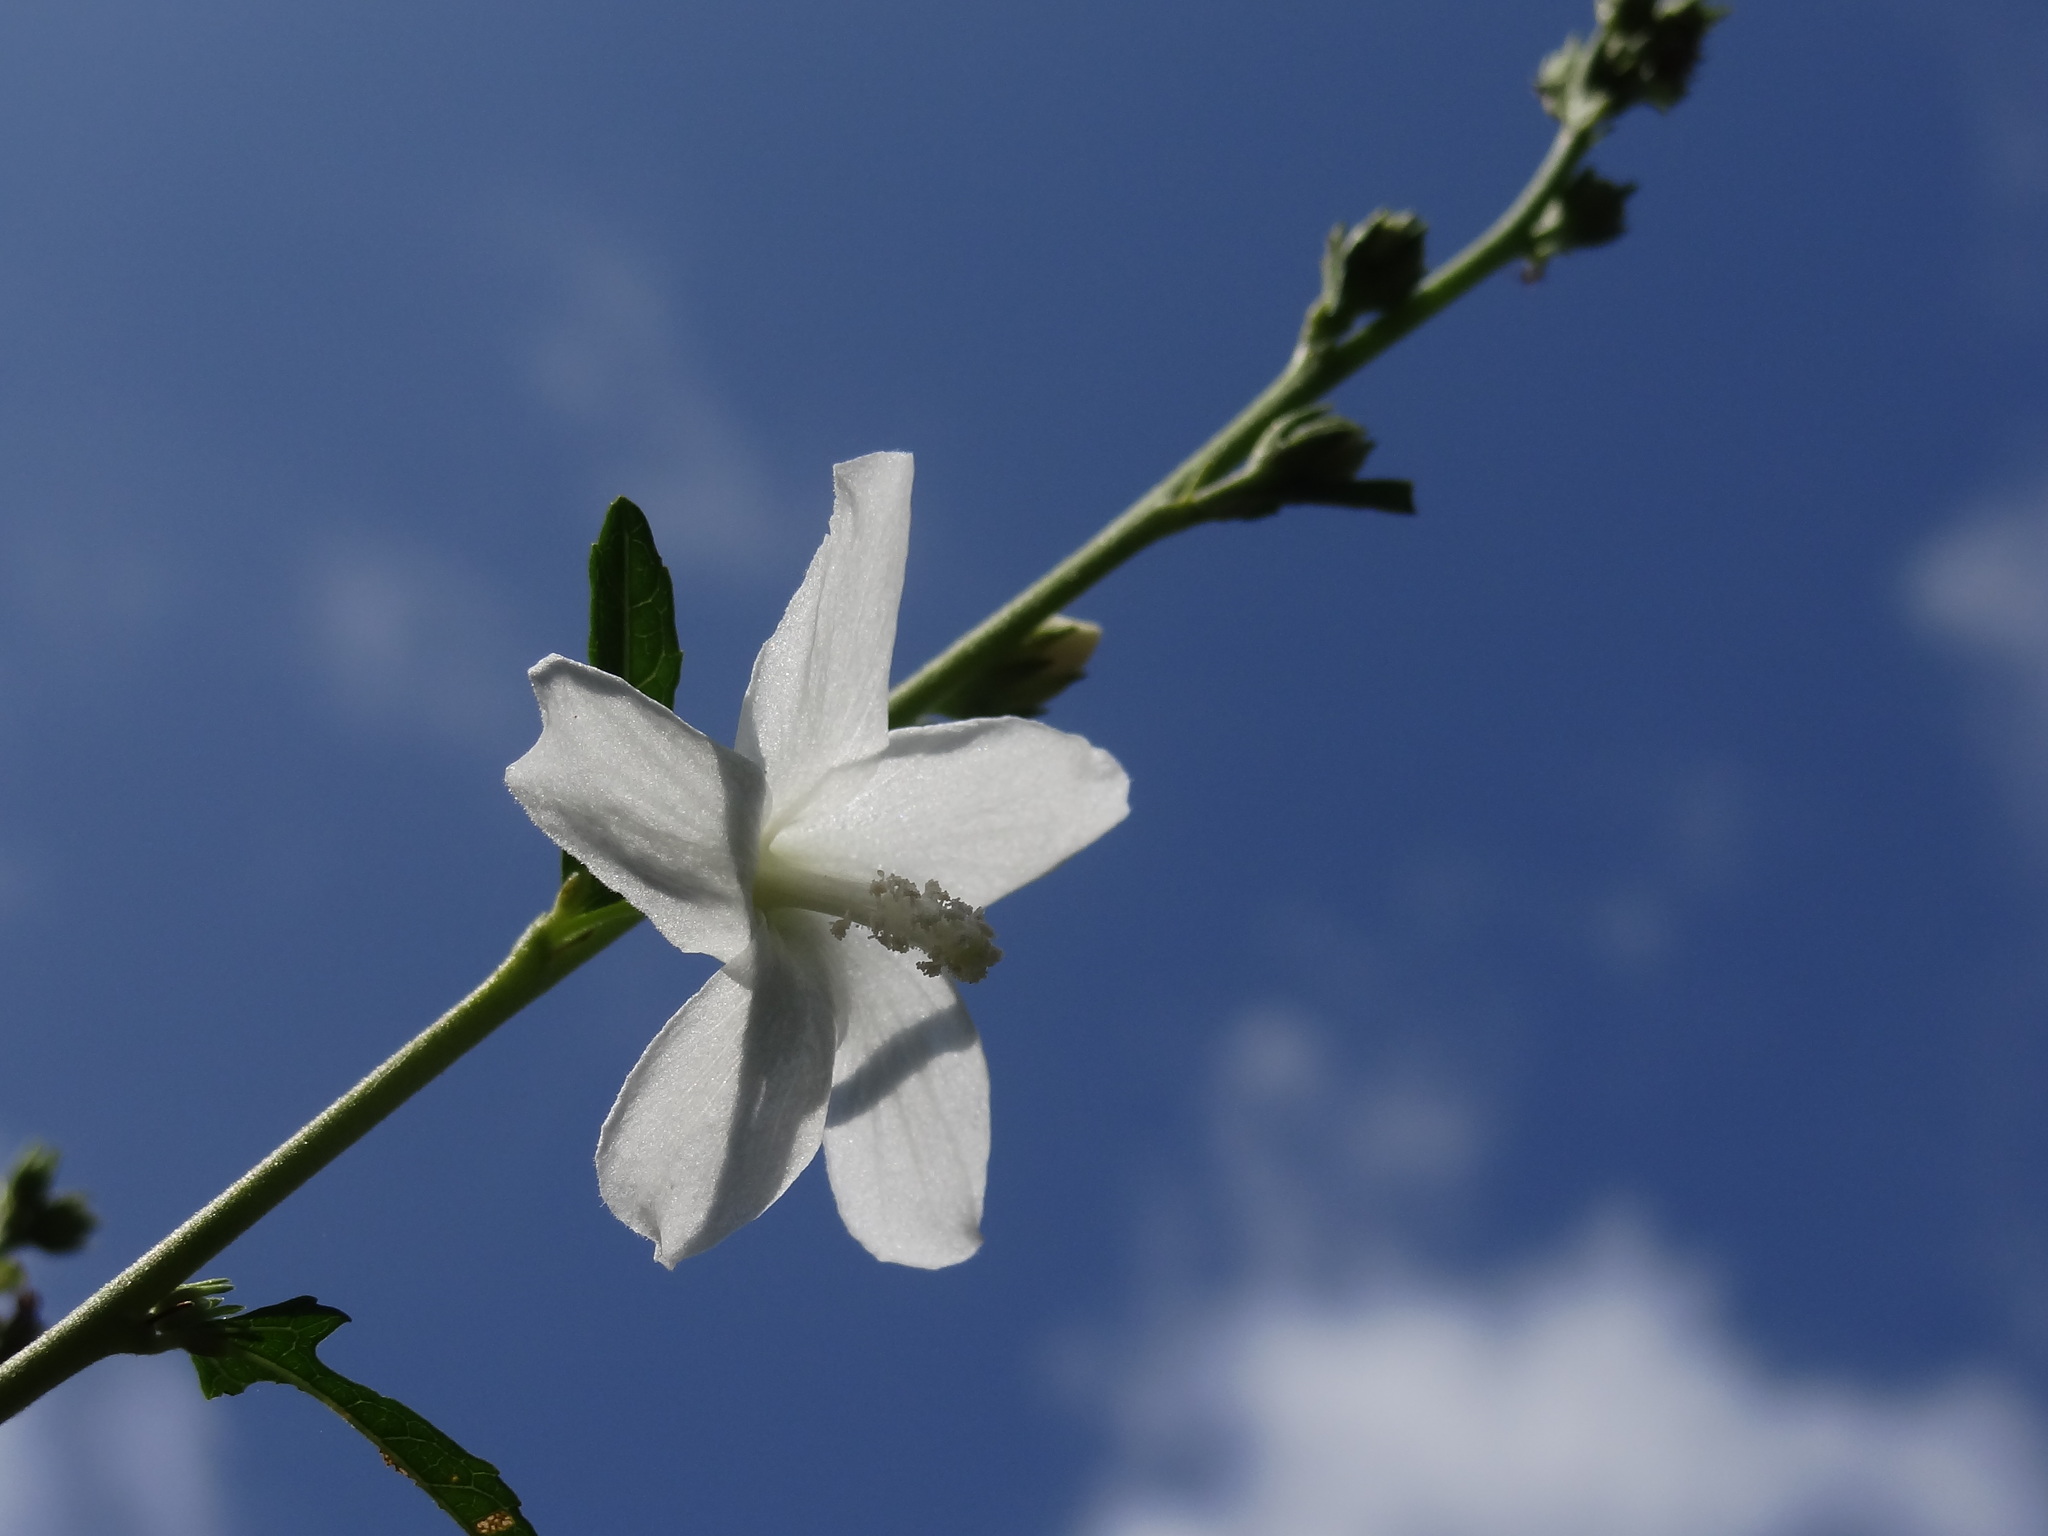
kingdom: Plantae
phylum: Tracheophyta
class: Magnoliopsida
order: Malvales
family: Malvaceae
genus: Urena
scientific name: Urena procumbens
